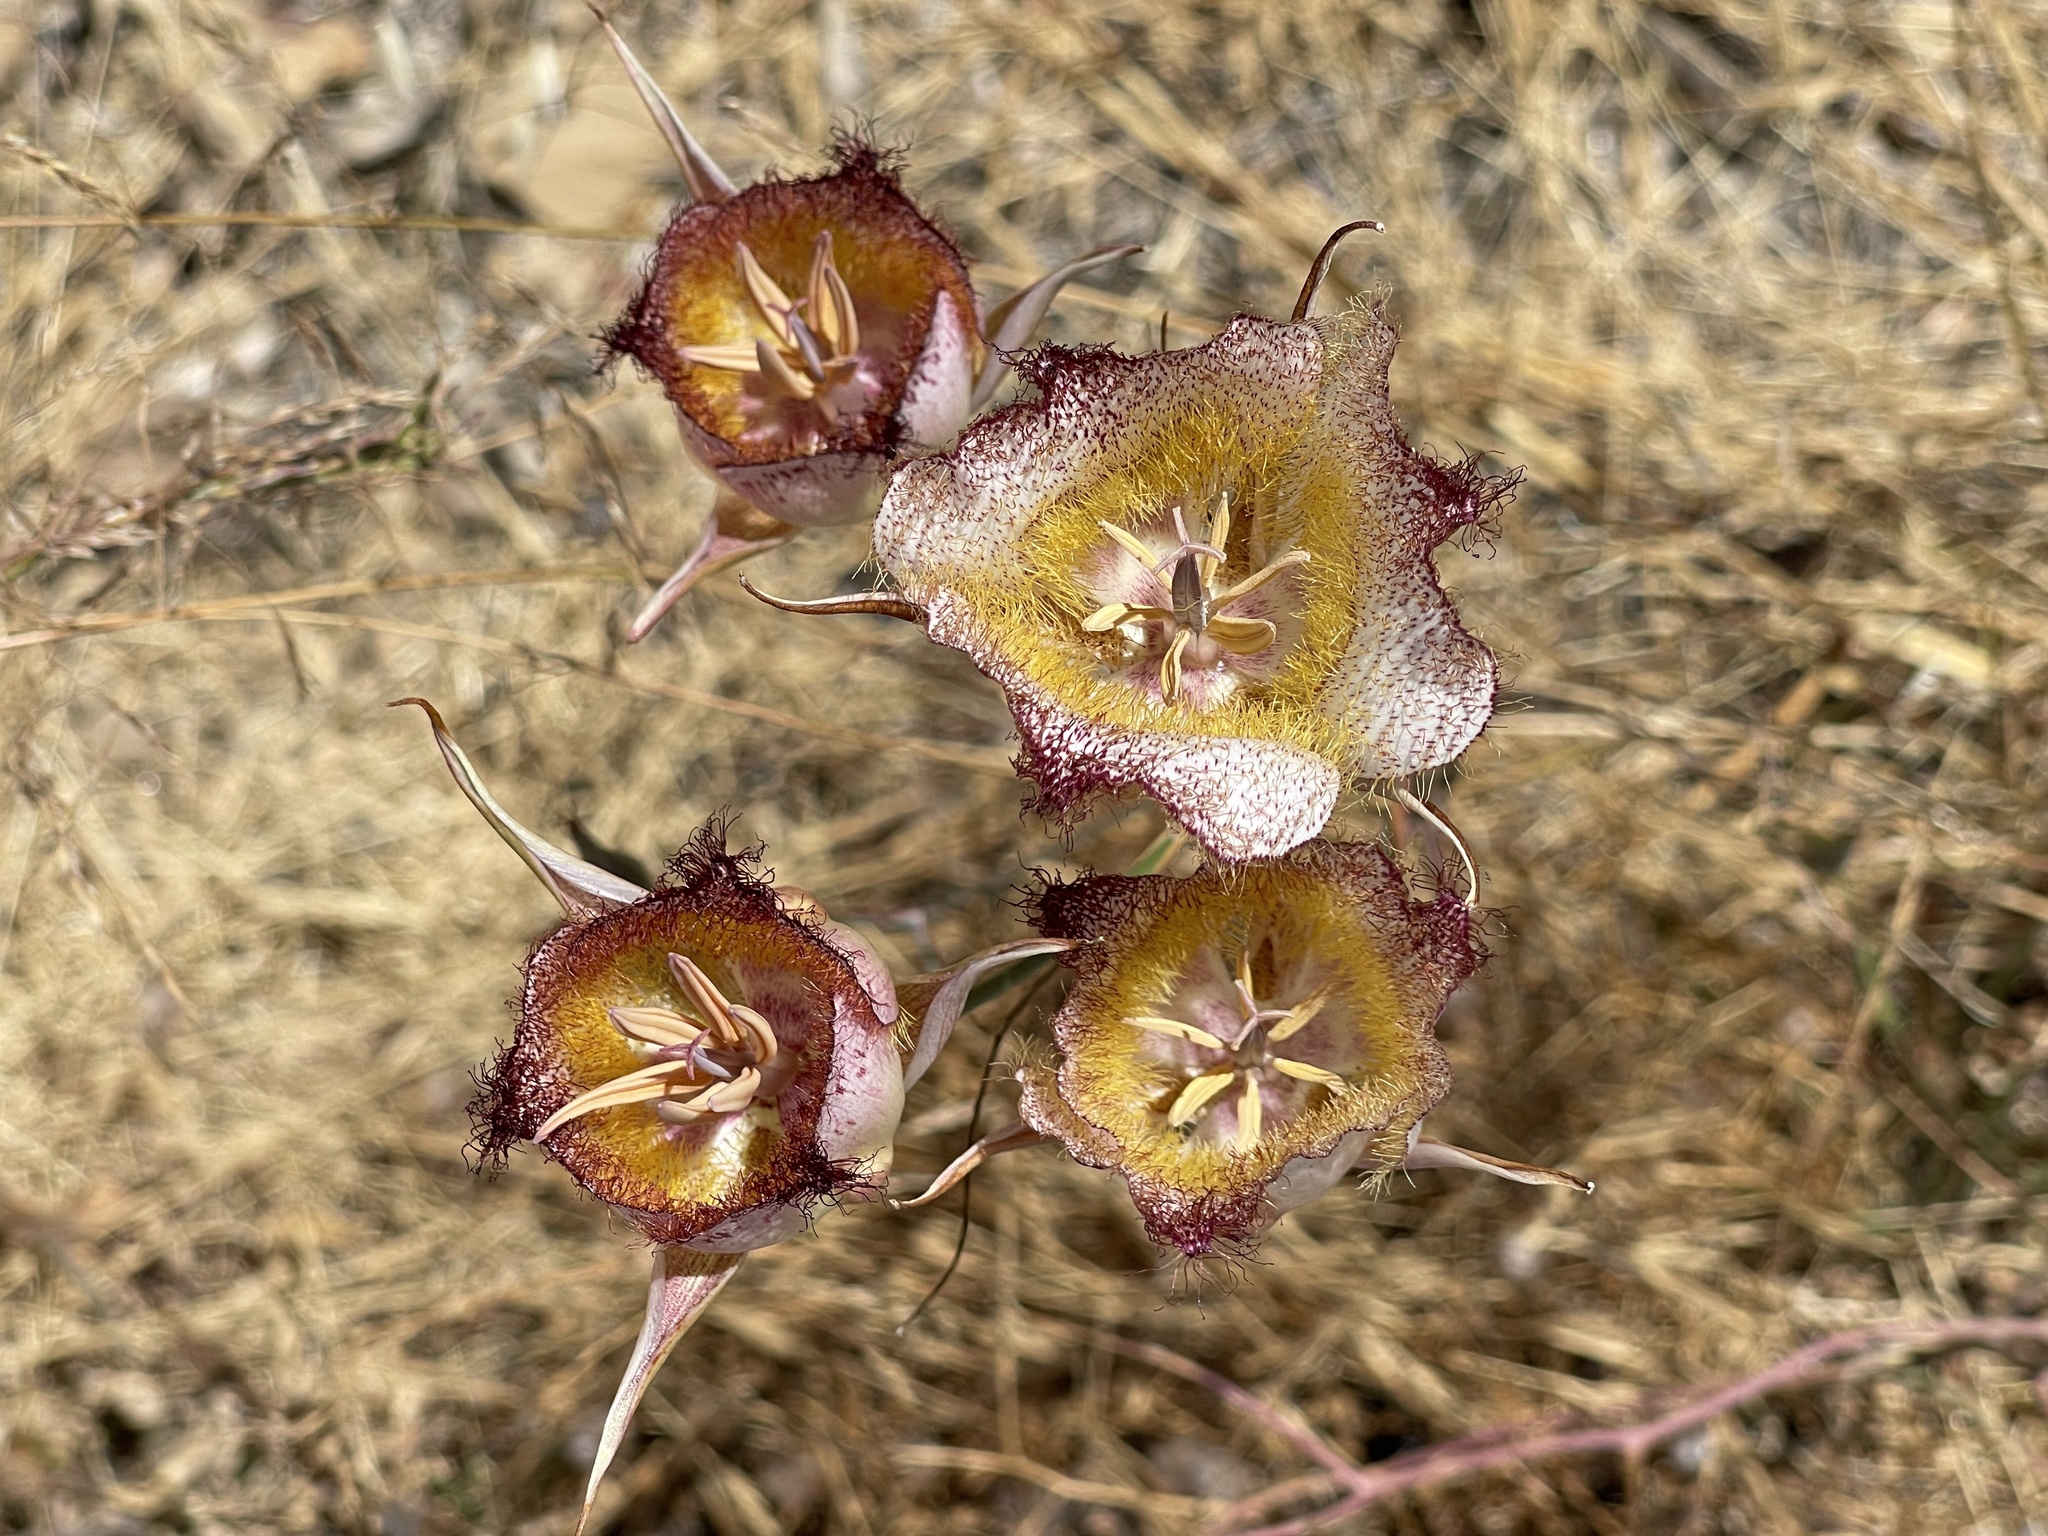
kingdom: Plantae
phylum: Tracheophyta
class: Liliopsida
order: Liliales
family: Liliaceae
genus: Calochortus
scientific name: Calochortus fimbriatus
